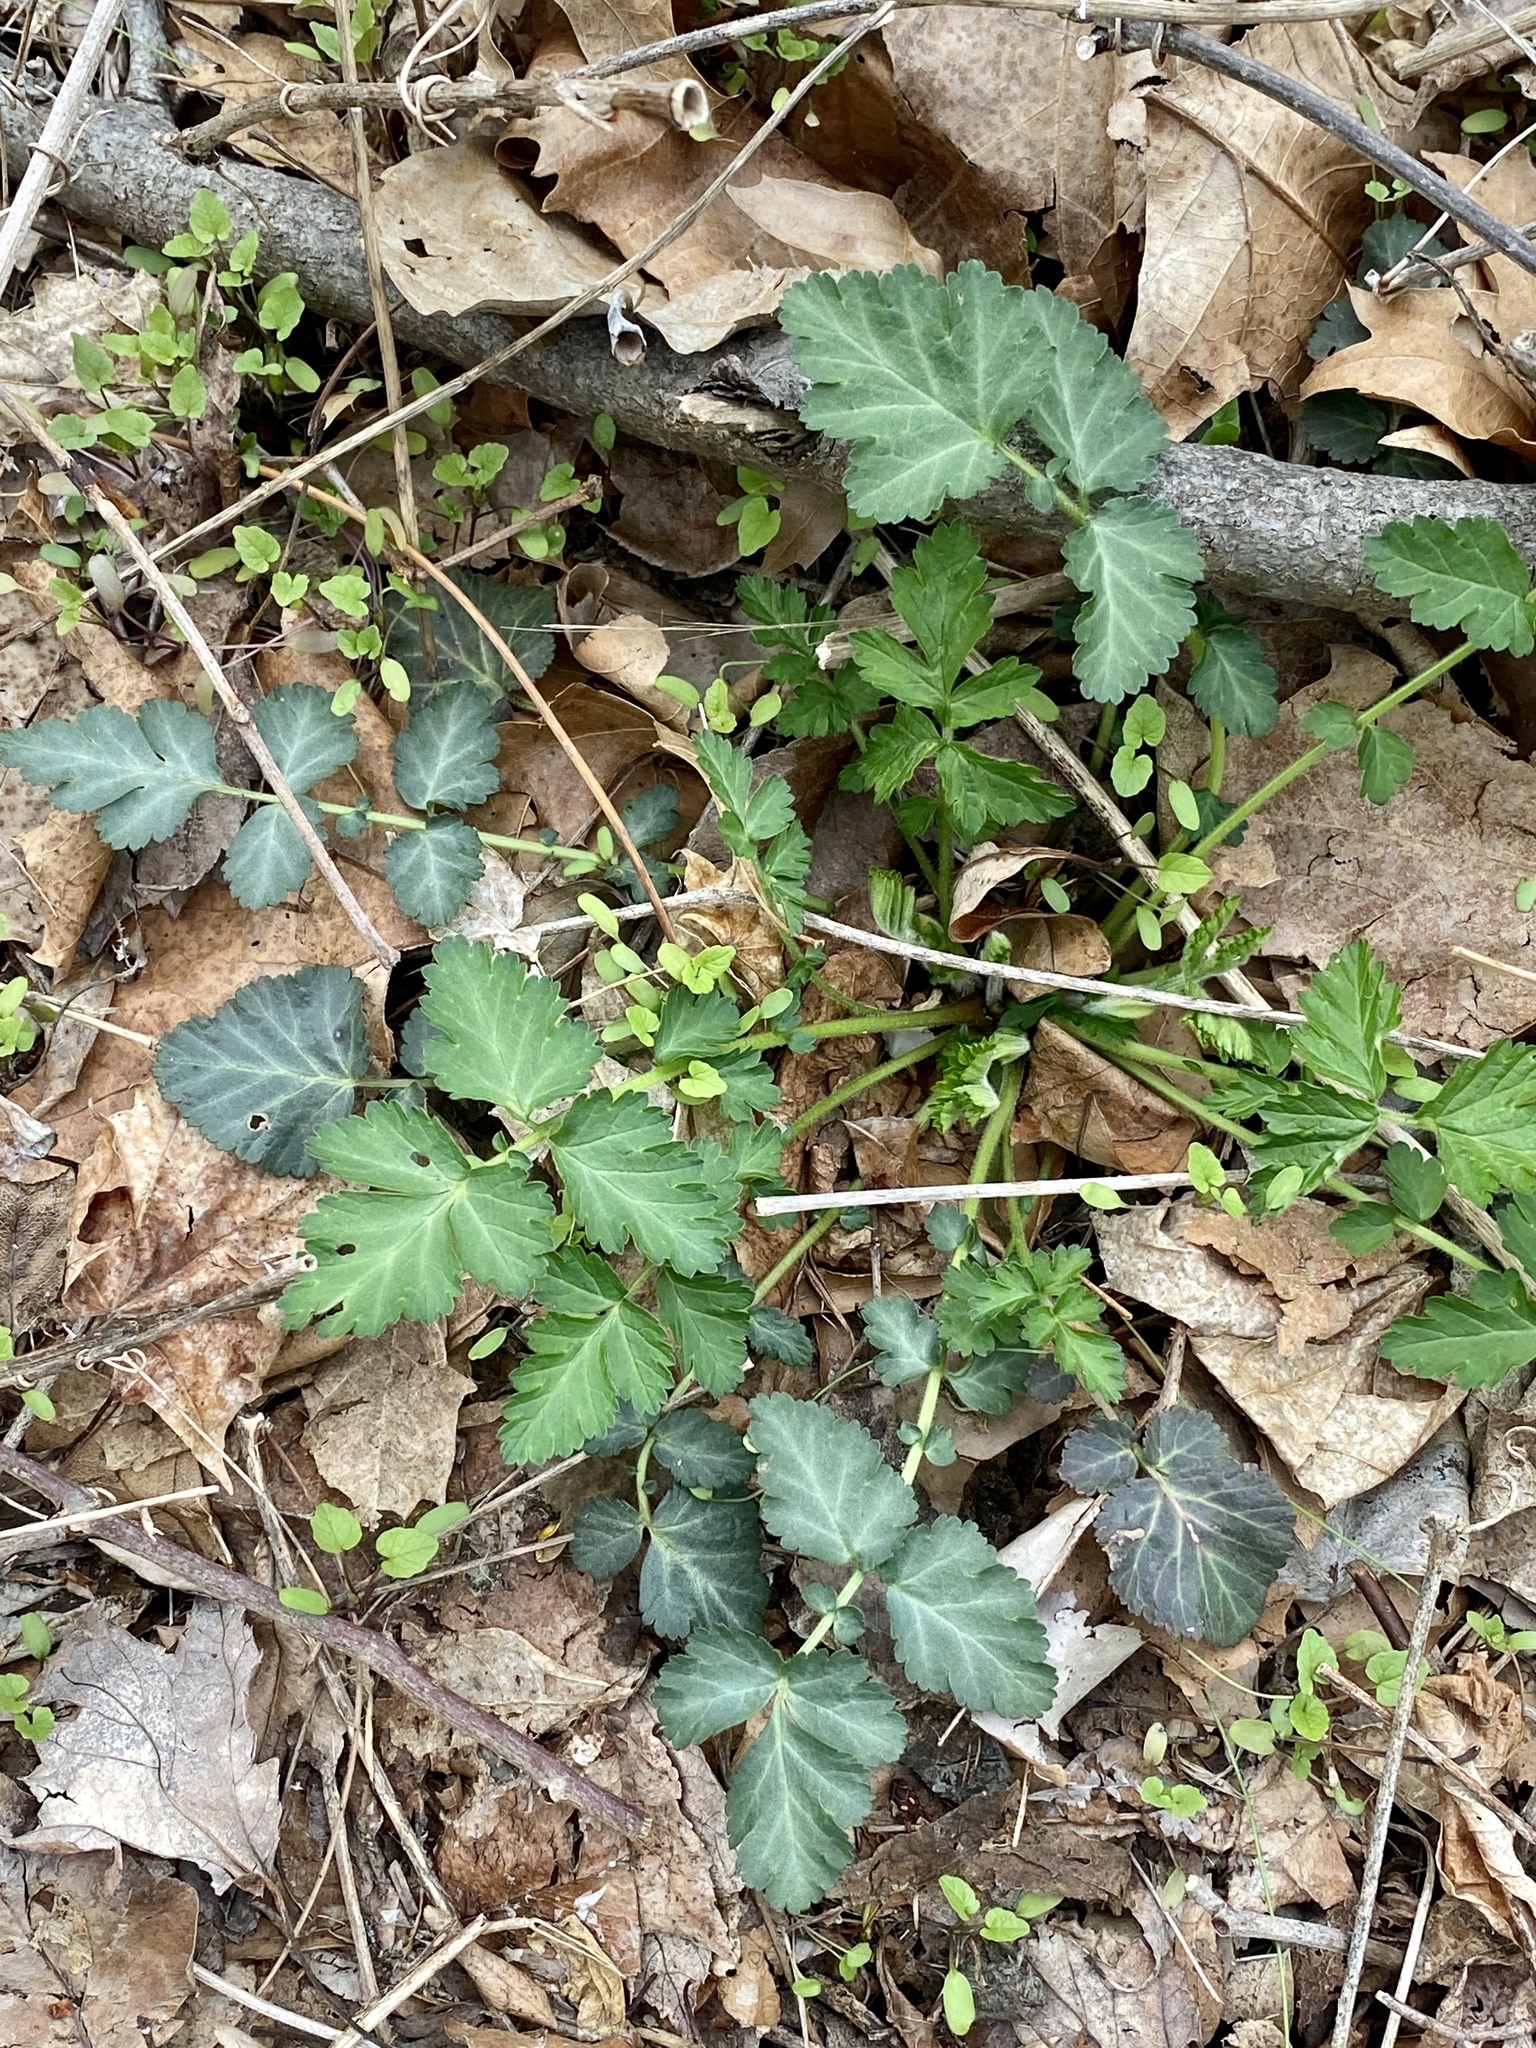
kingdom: Plantae
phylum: Tracheophyta
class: Magnoliopsida
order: Rosales
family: Rosaceae
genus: Geum
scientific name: Geum canadense
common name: White avens
